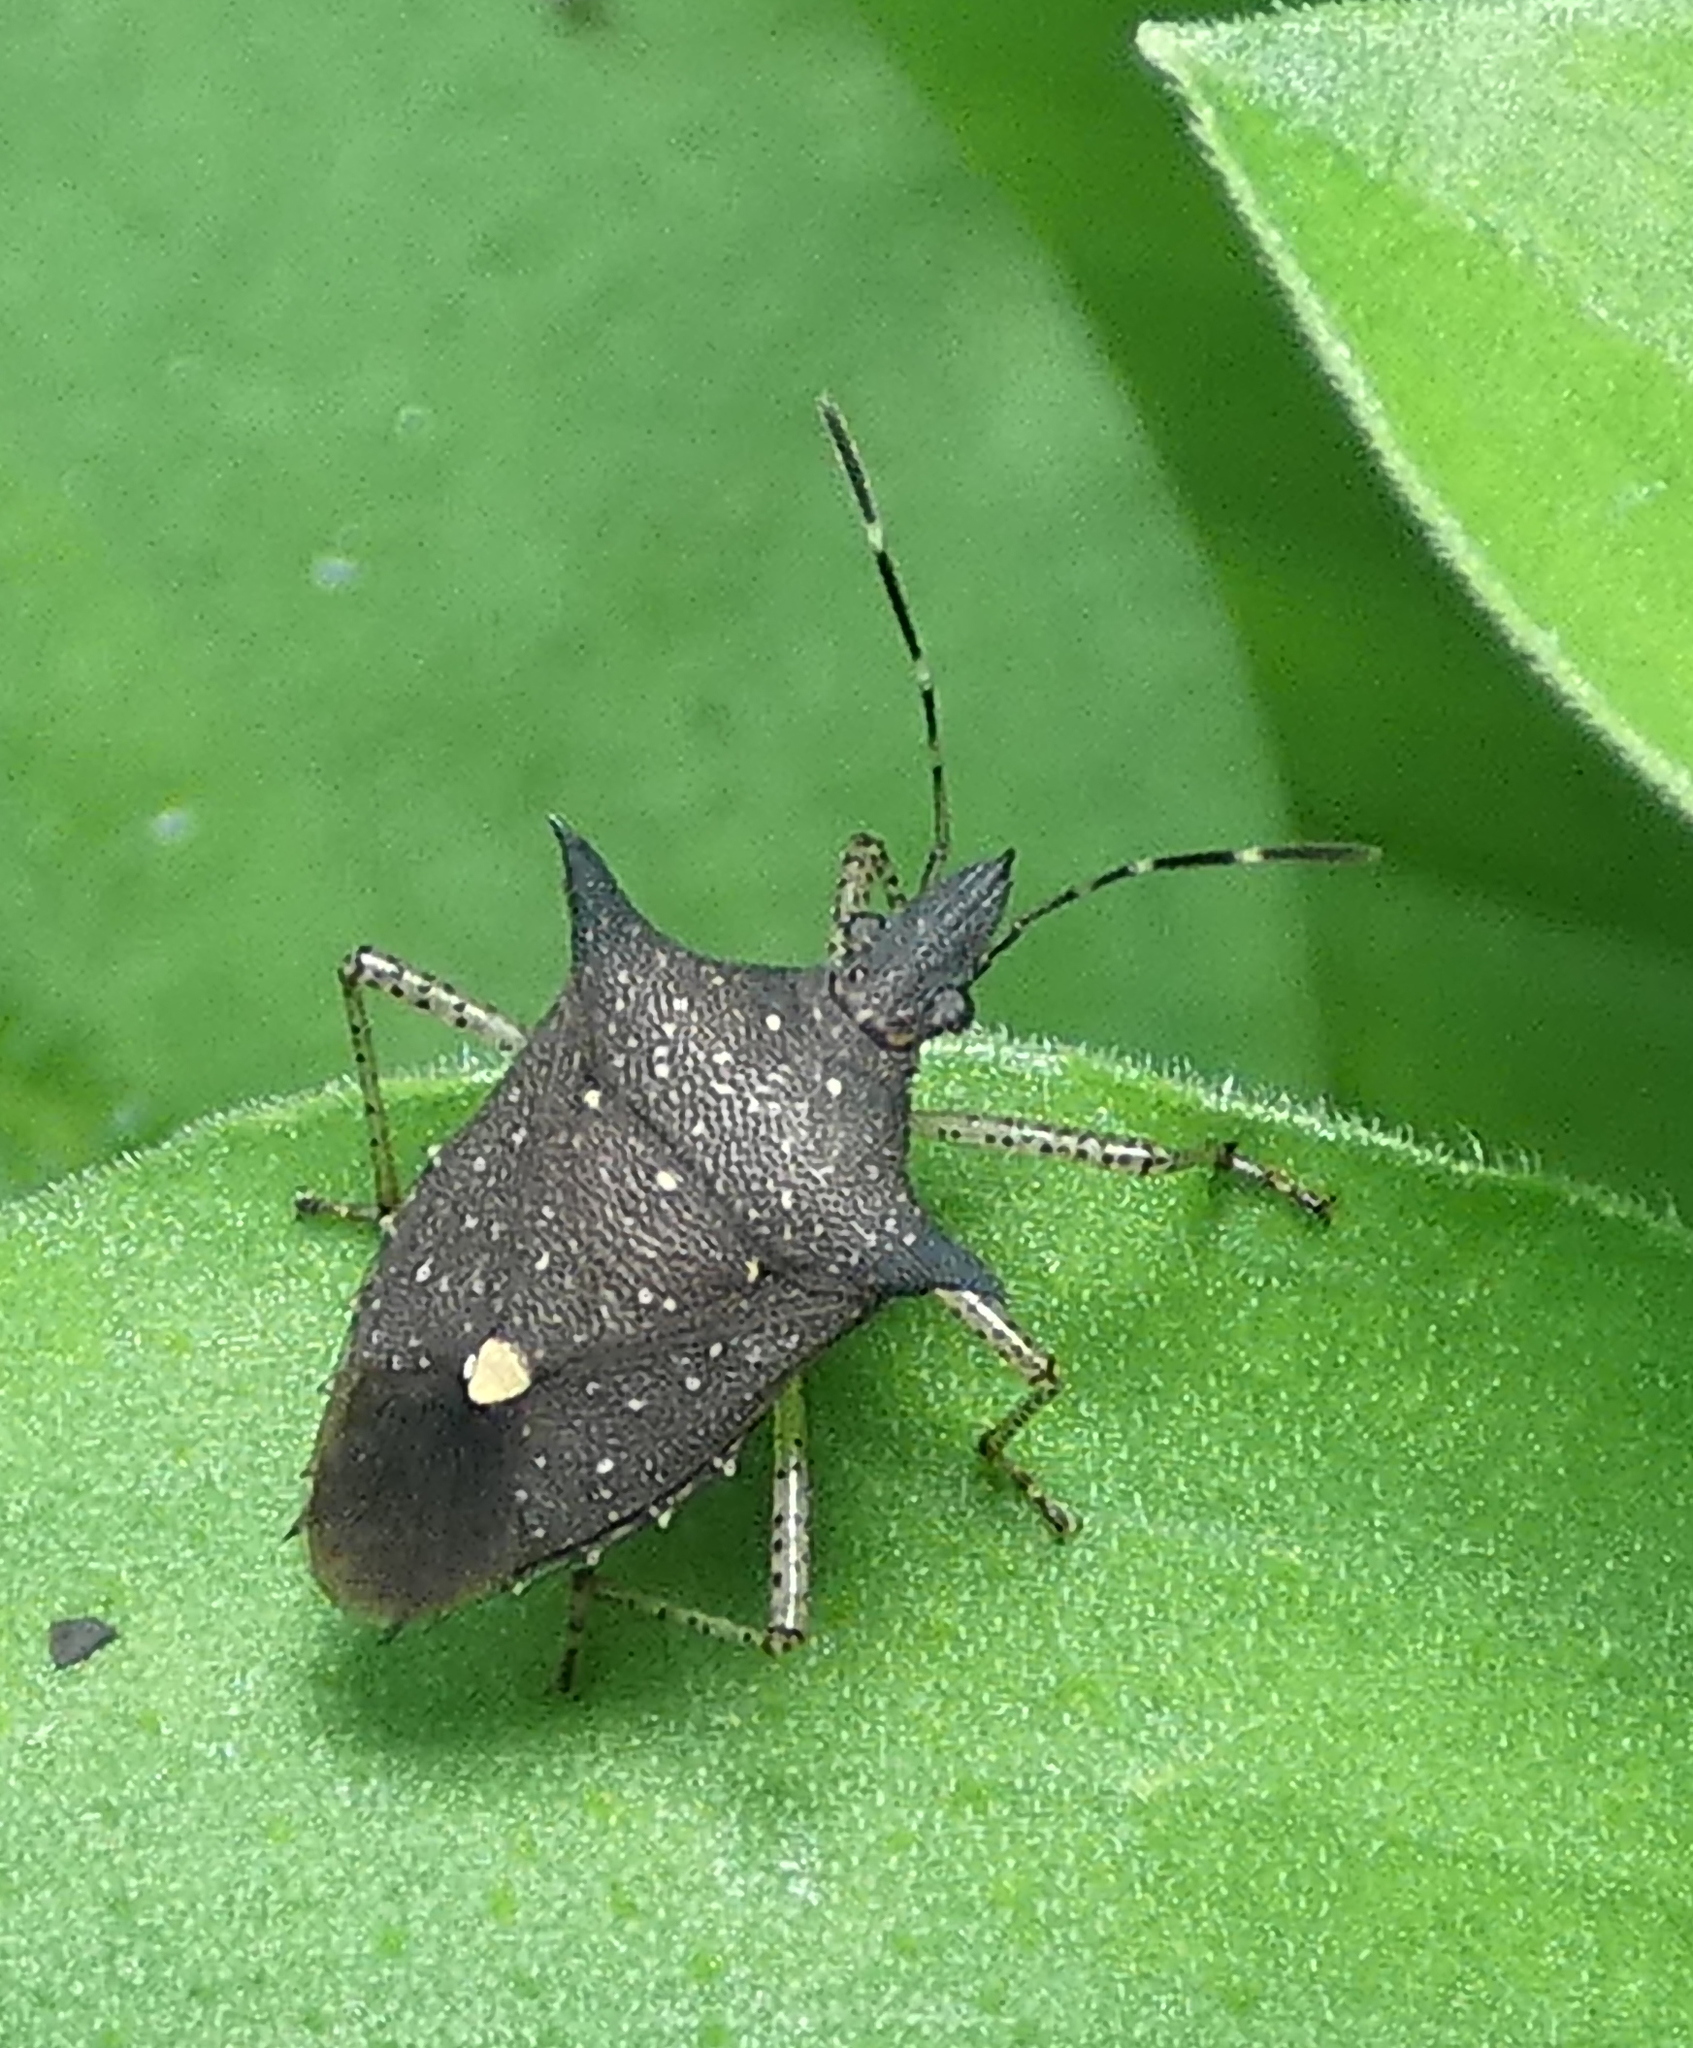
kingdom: Animalia
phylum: Arthropoda
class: Insecta
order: Hemiptera
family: Pentatomidae
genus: Proxys
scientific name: Proxys albopunctulatus
